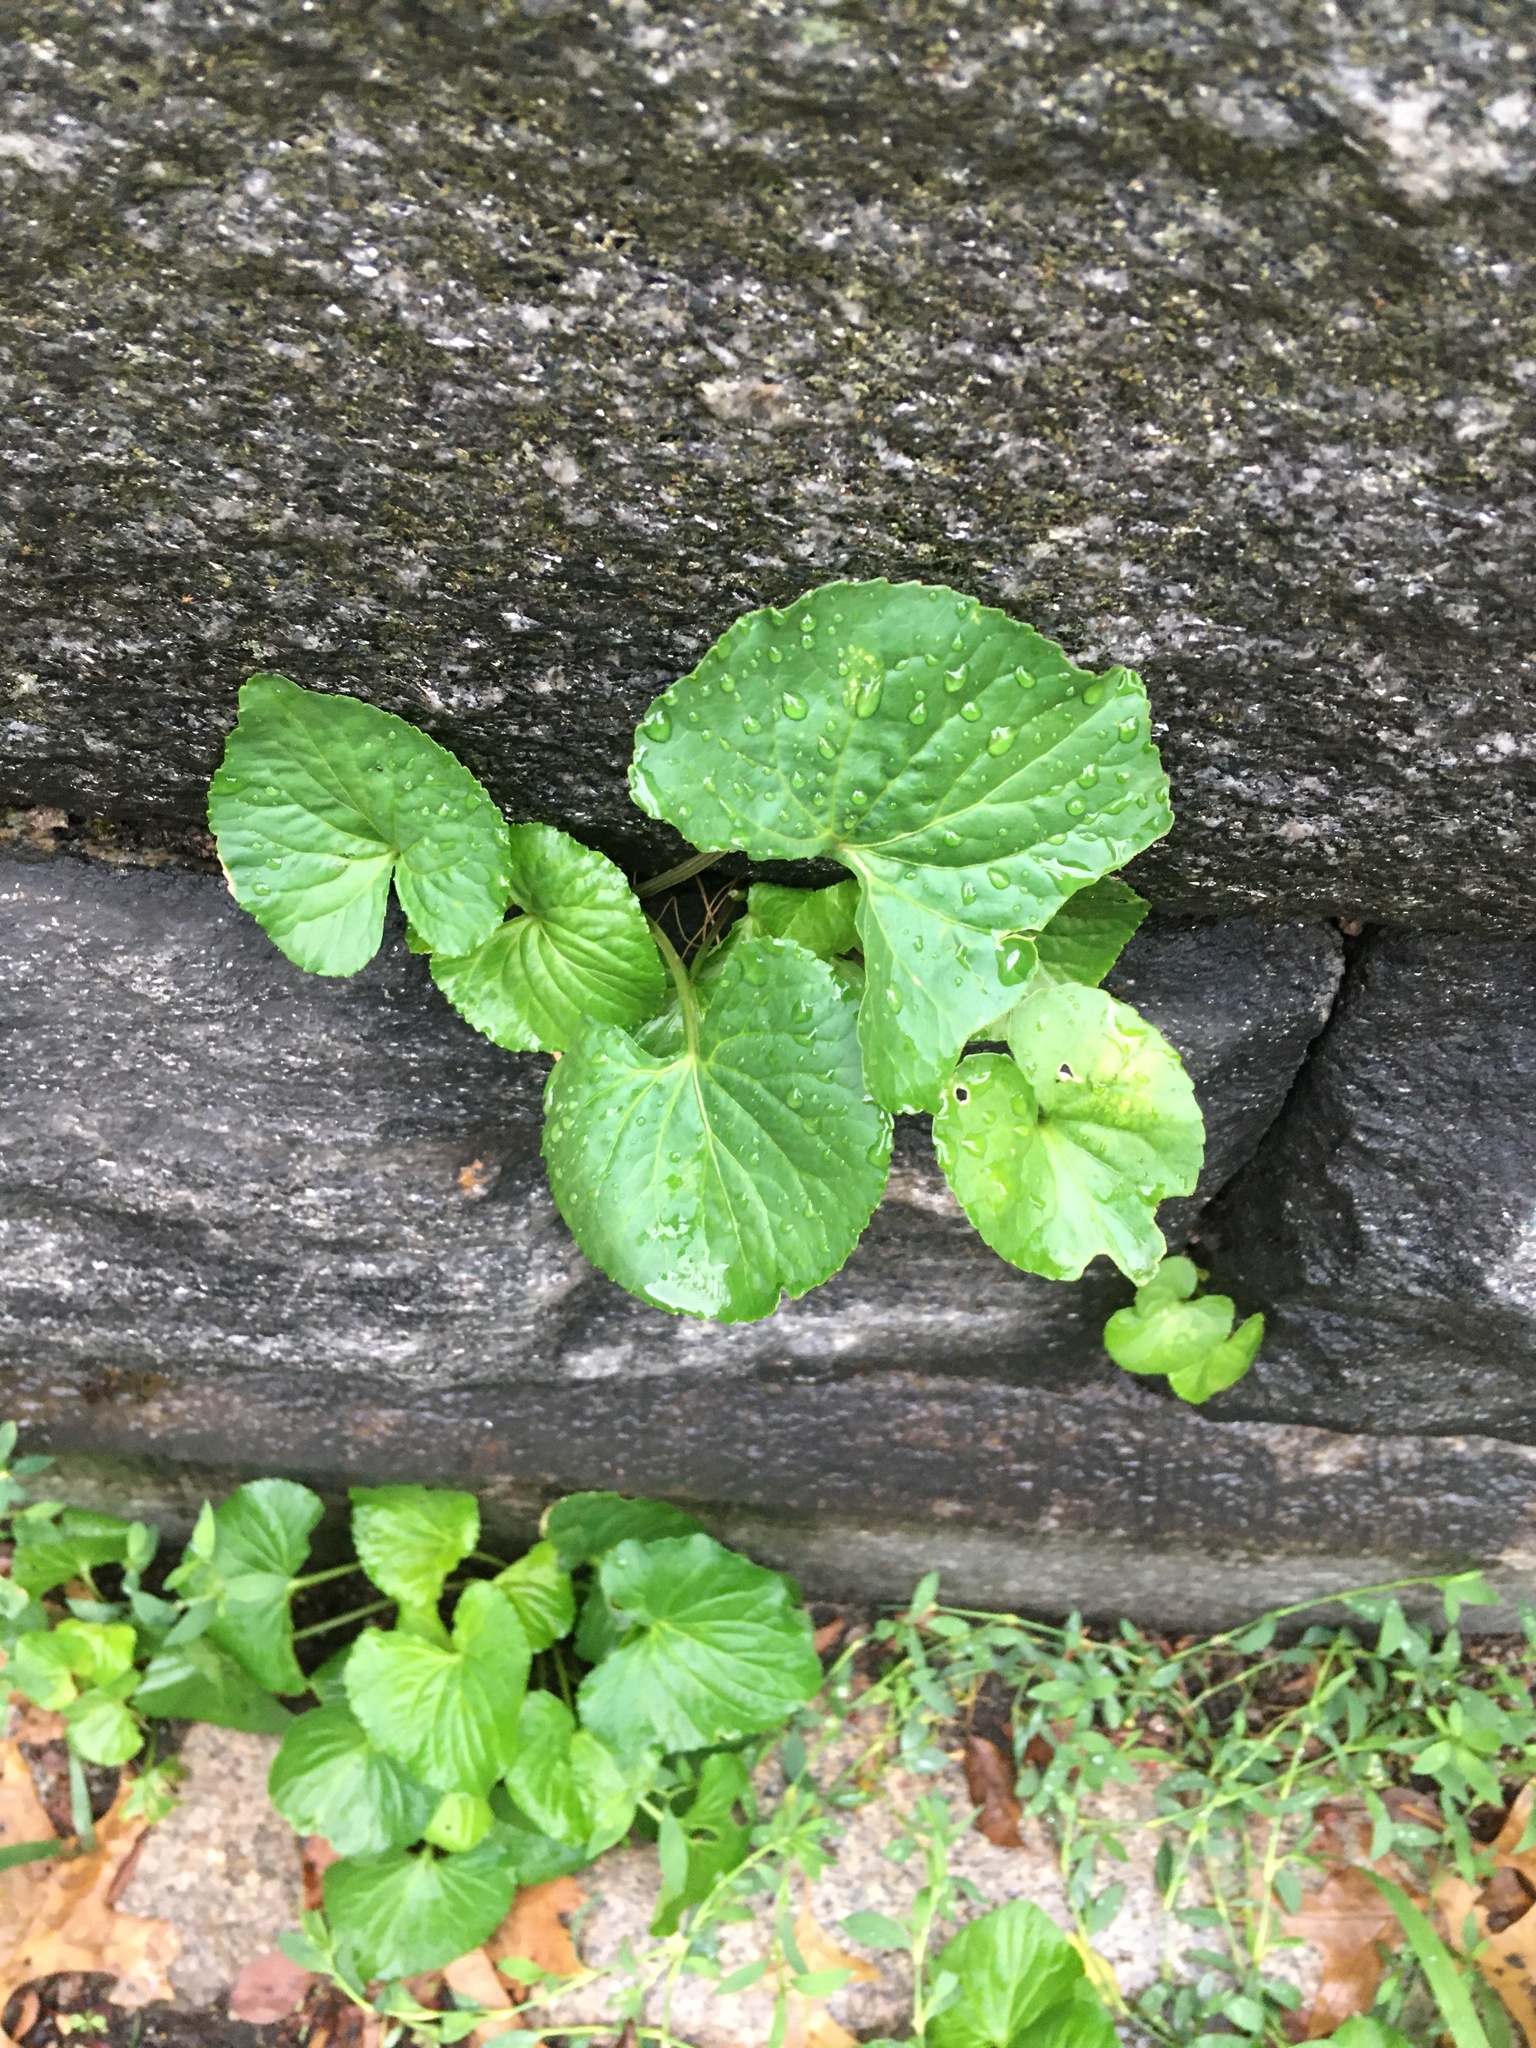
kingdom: Plantae
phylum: Tracheophyta
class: Magnoliopsida
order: Malpighiales
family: Violaceae
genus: Viola
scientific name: Viola sororia
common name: Dooryard violet
